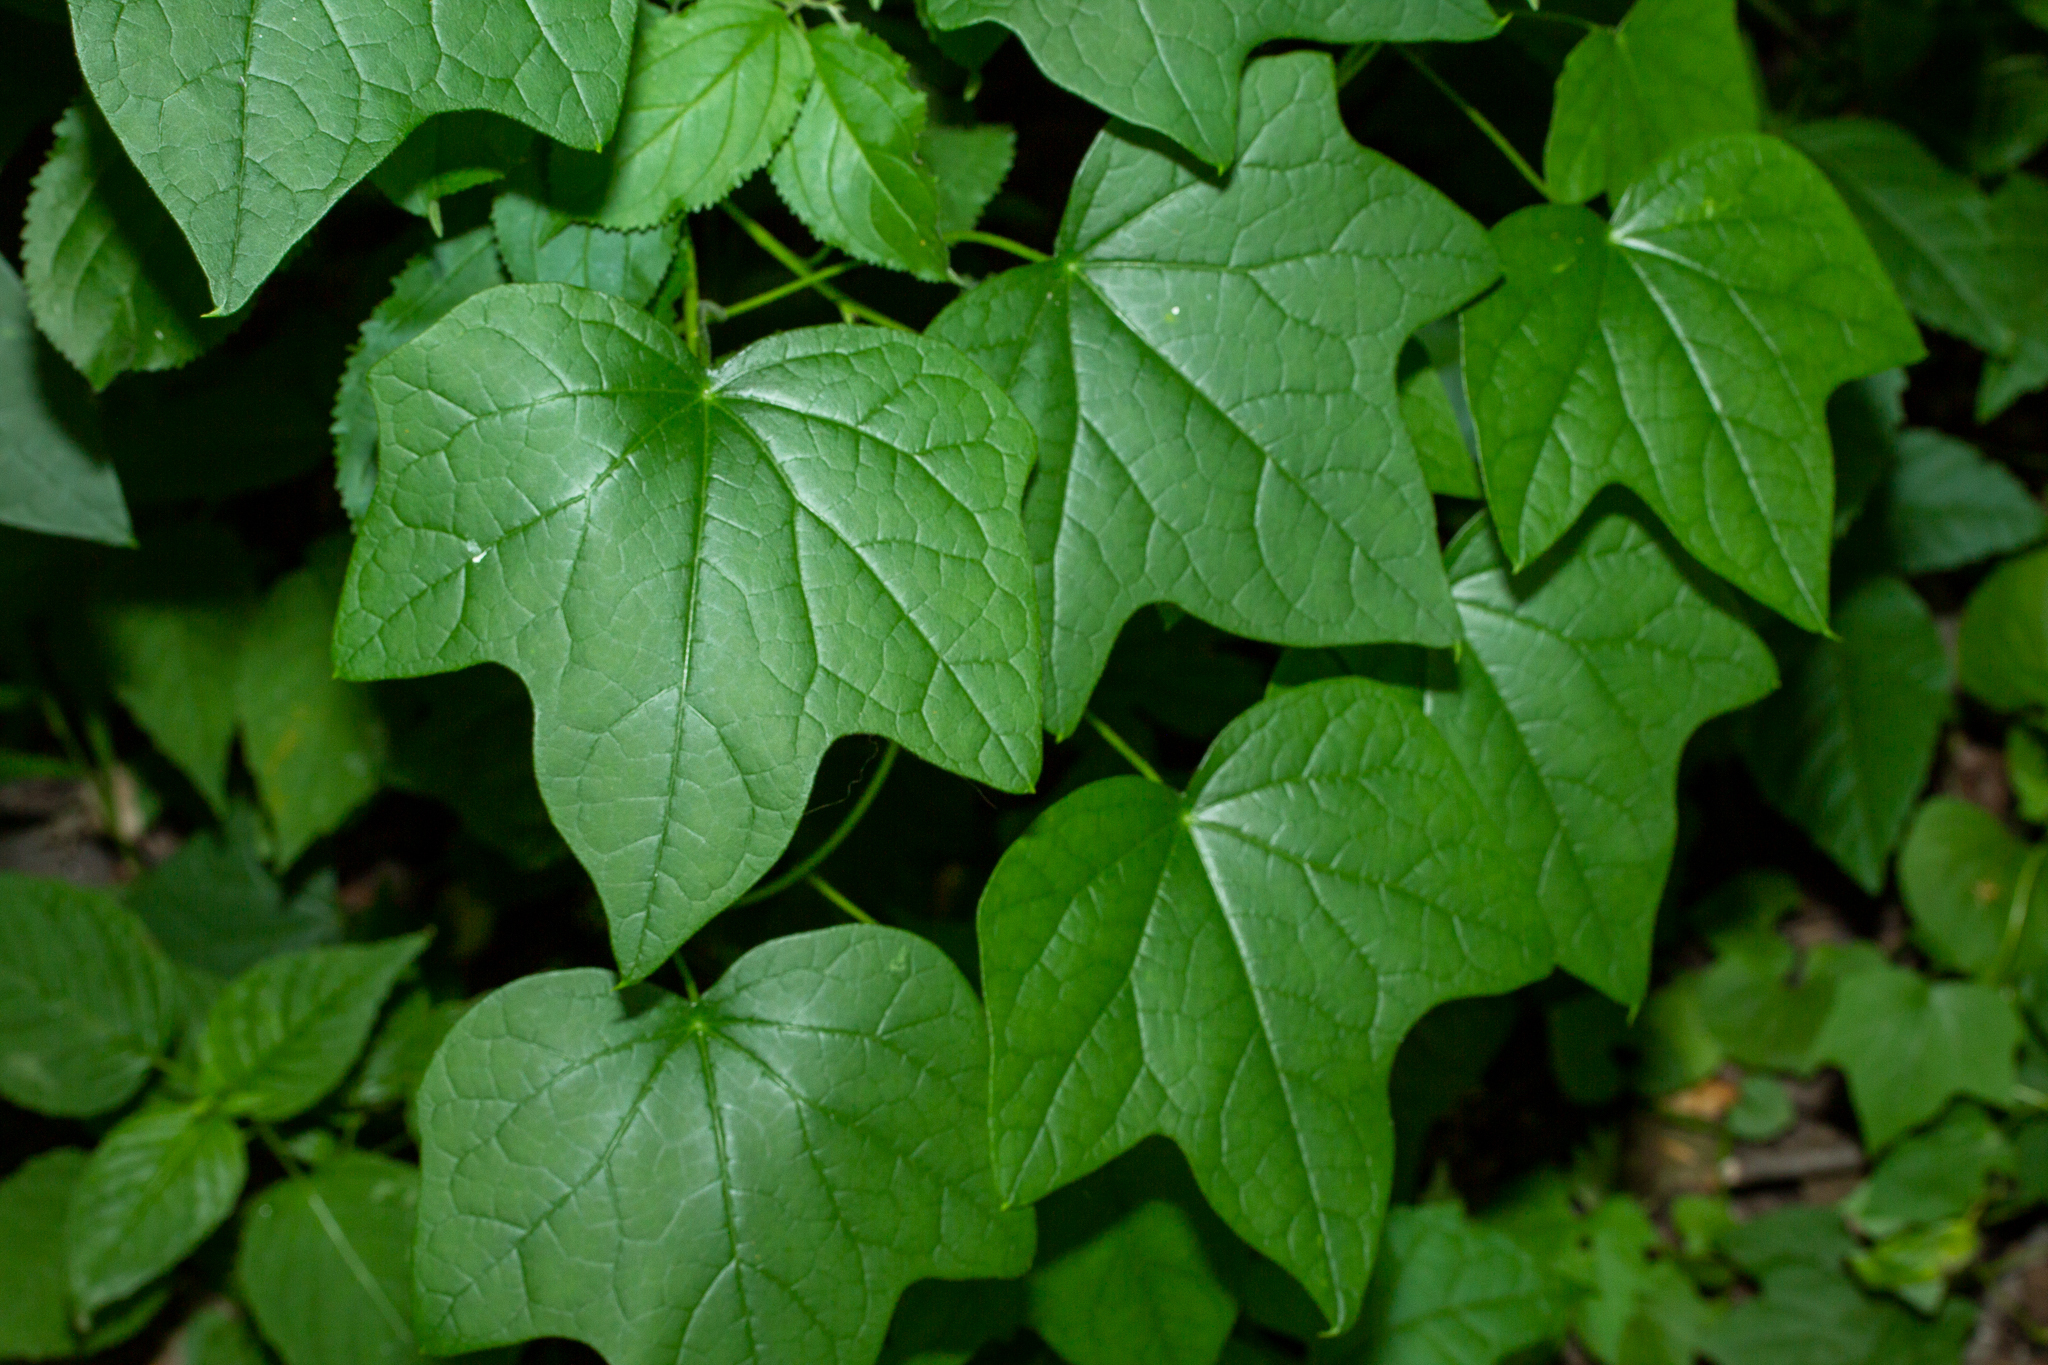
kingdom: Plantae
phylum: Tracheophyta
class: Magnoliopsida
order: Ranunculales
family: Menispermaceae
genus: Menispermum
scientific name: Menispermum canadense
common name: Moonseed
